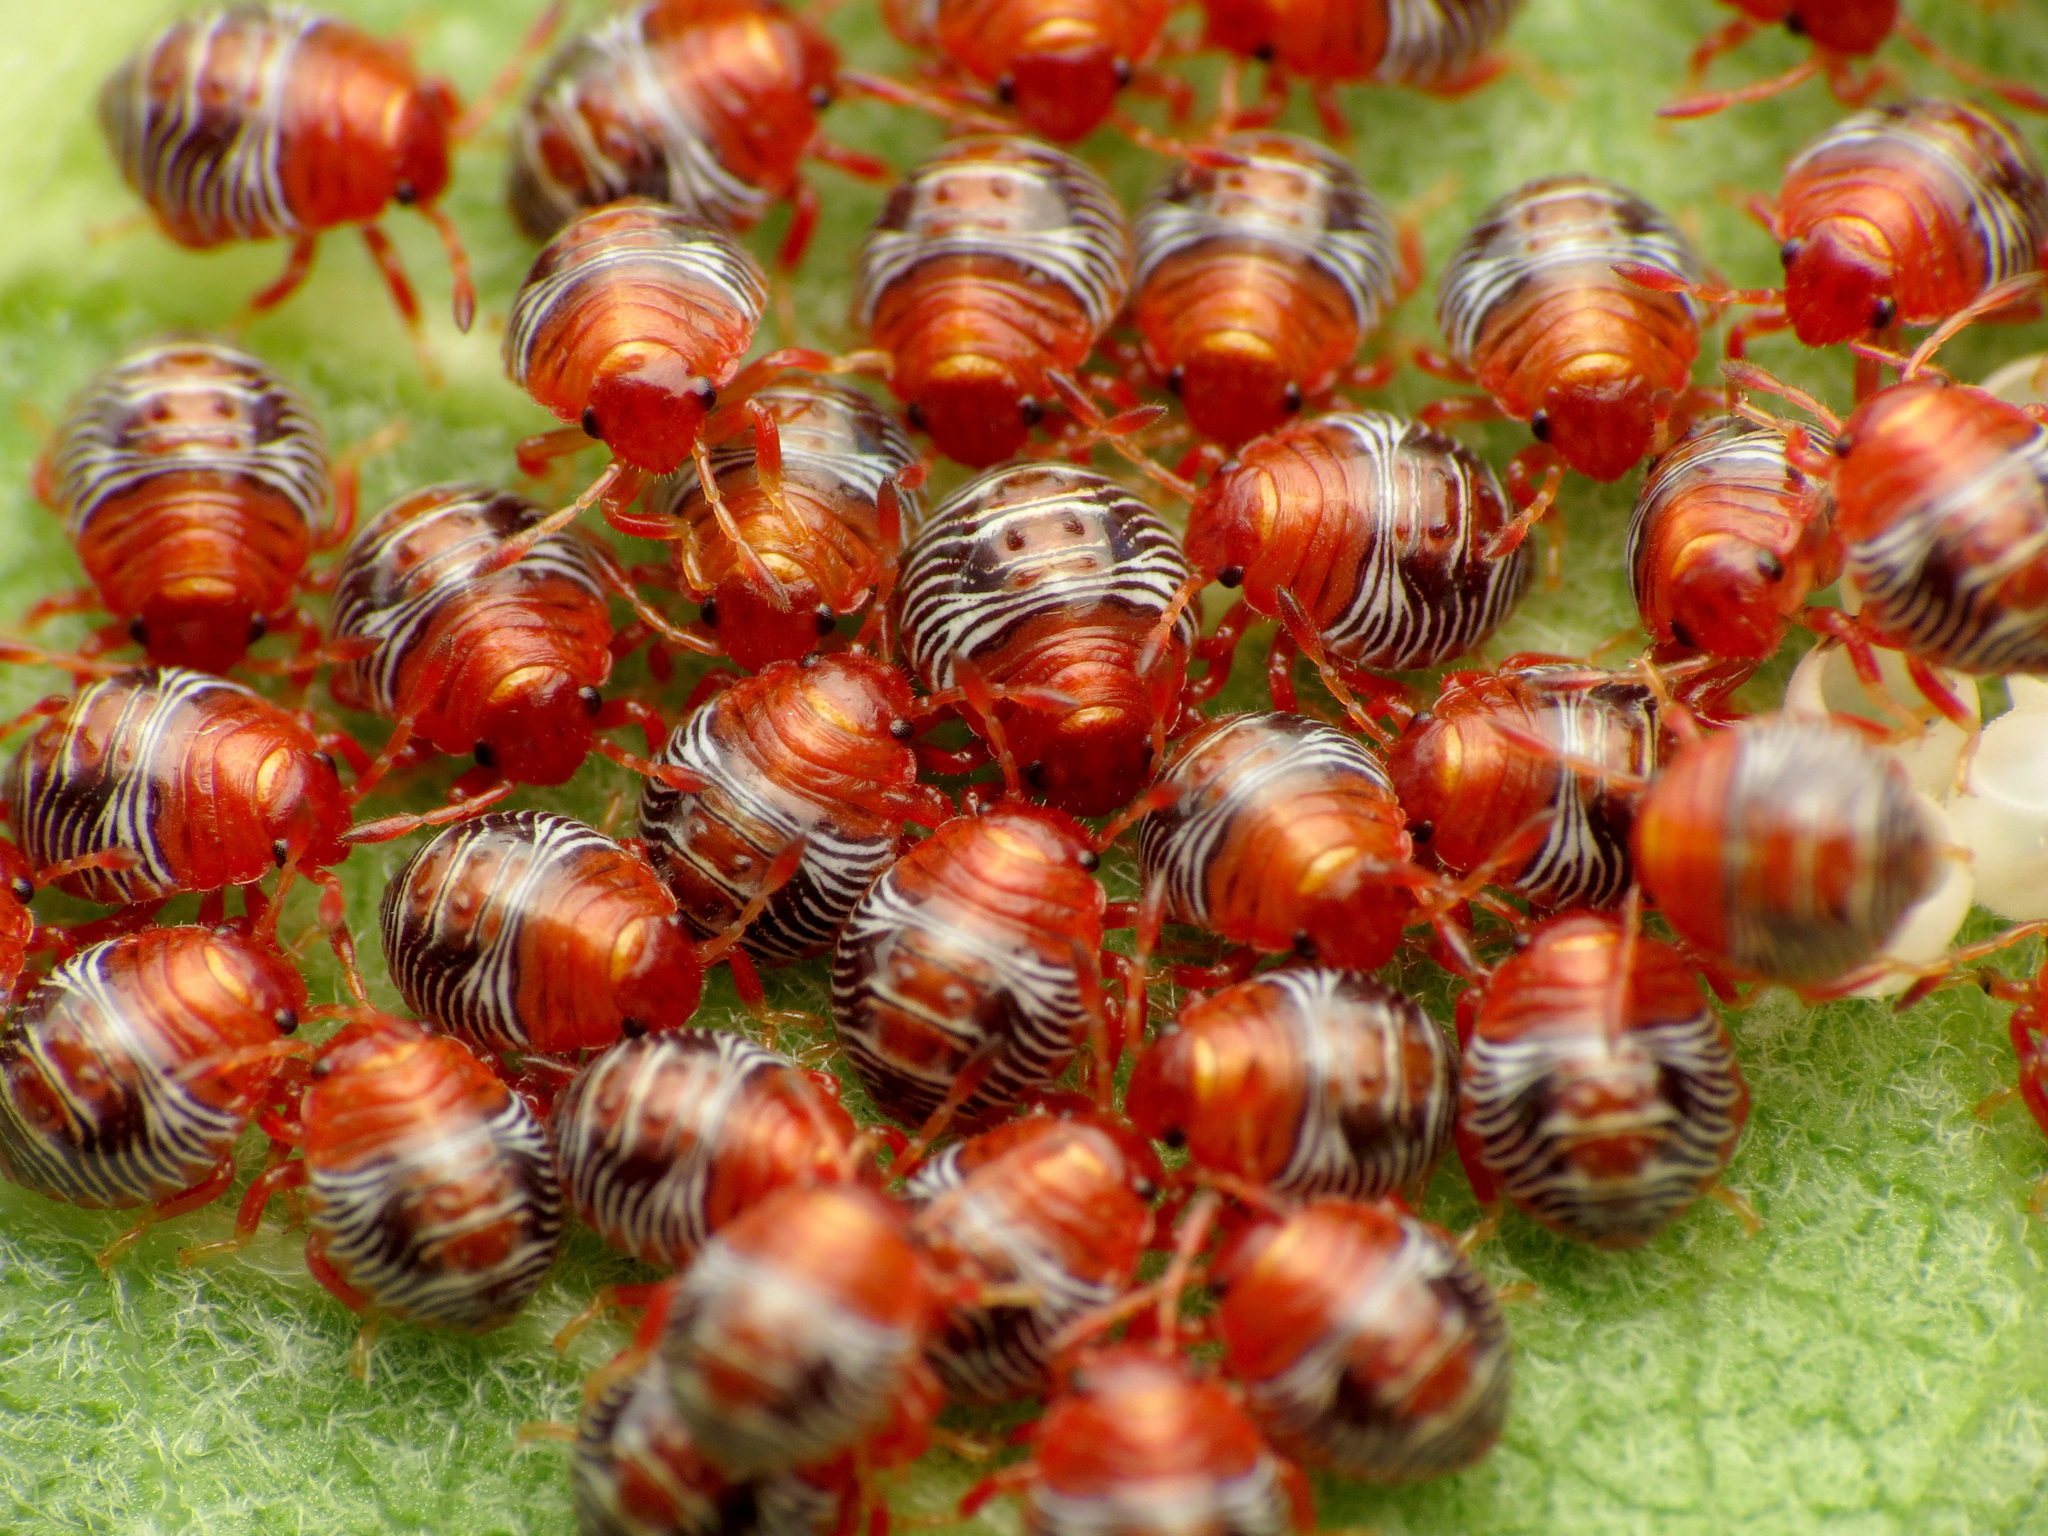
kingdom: Animalia
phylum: Arthropoda
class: Insecta
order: Hemiptera
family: Pentatomidae
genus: Chinavia
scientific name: Chinavia hilaris
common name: Green stink bug
